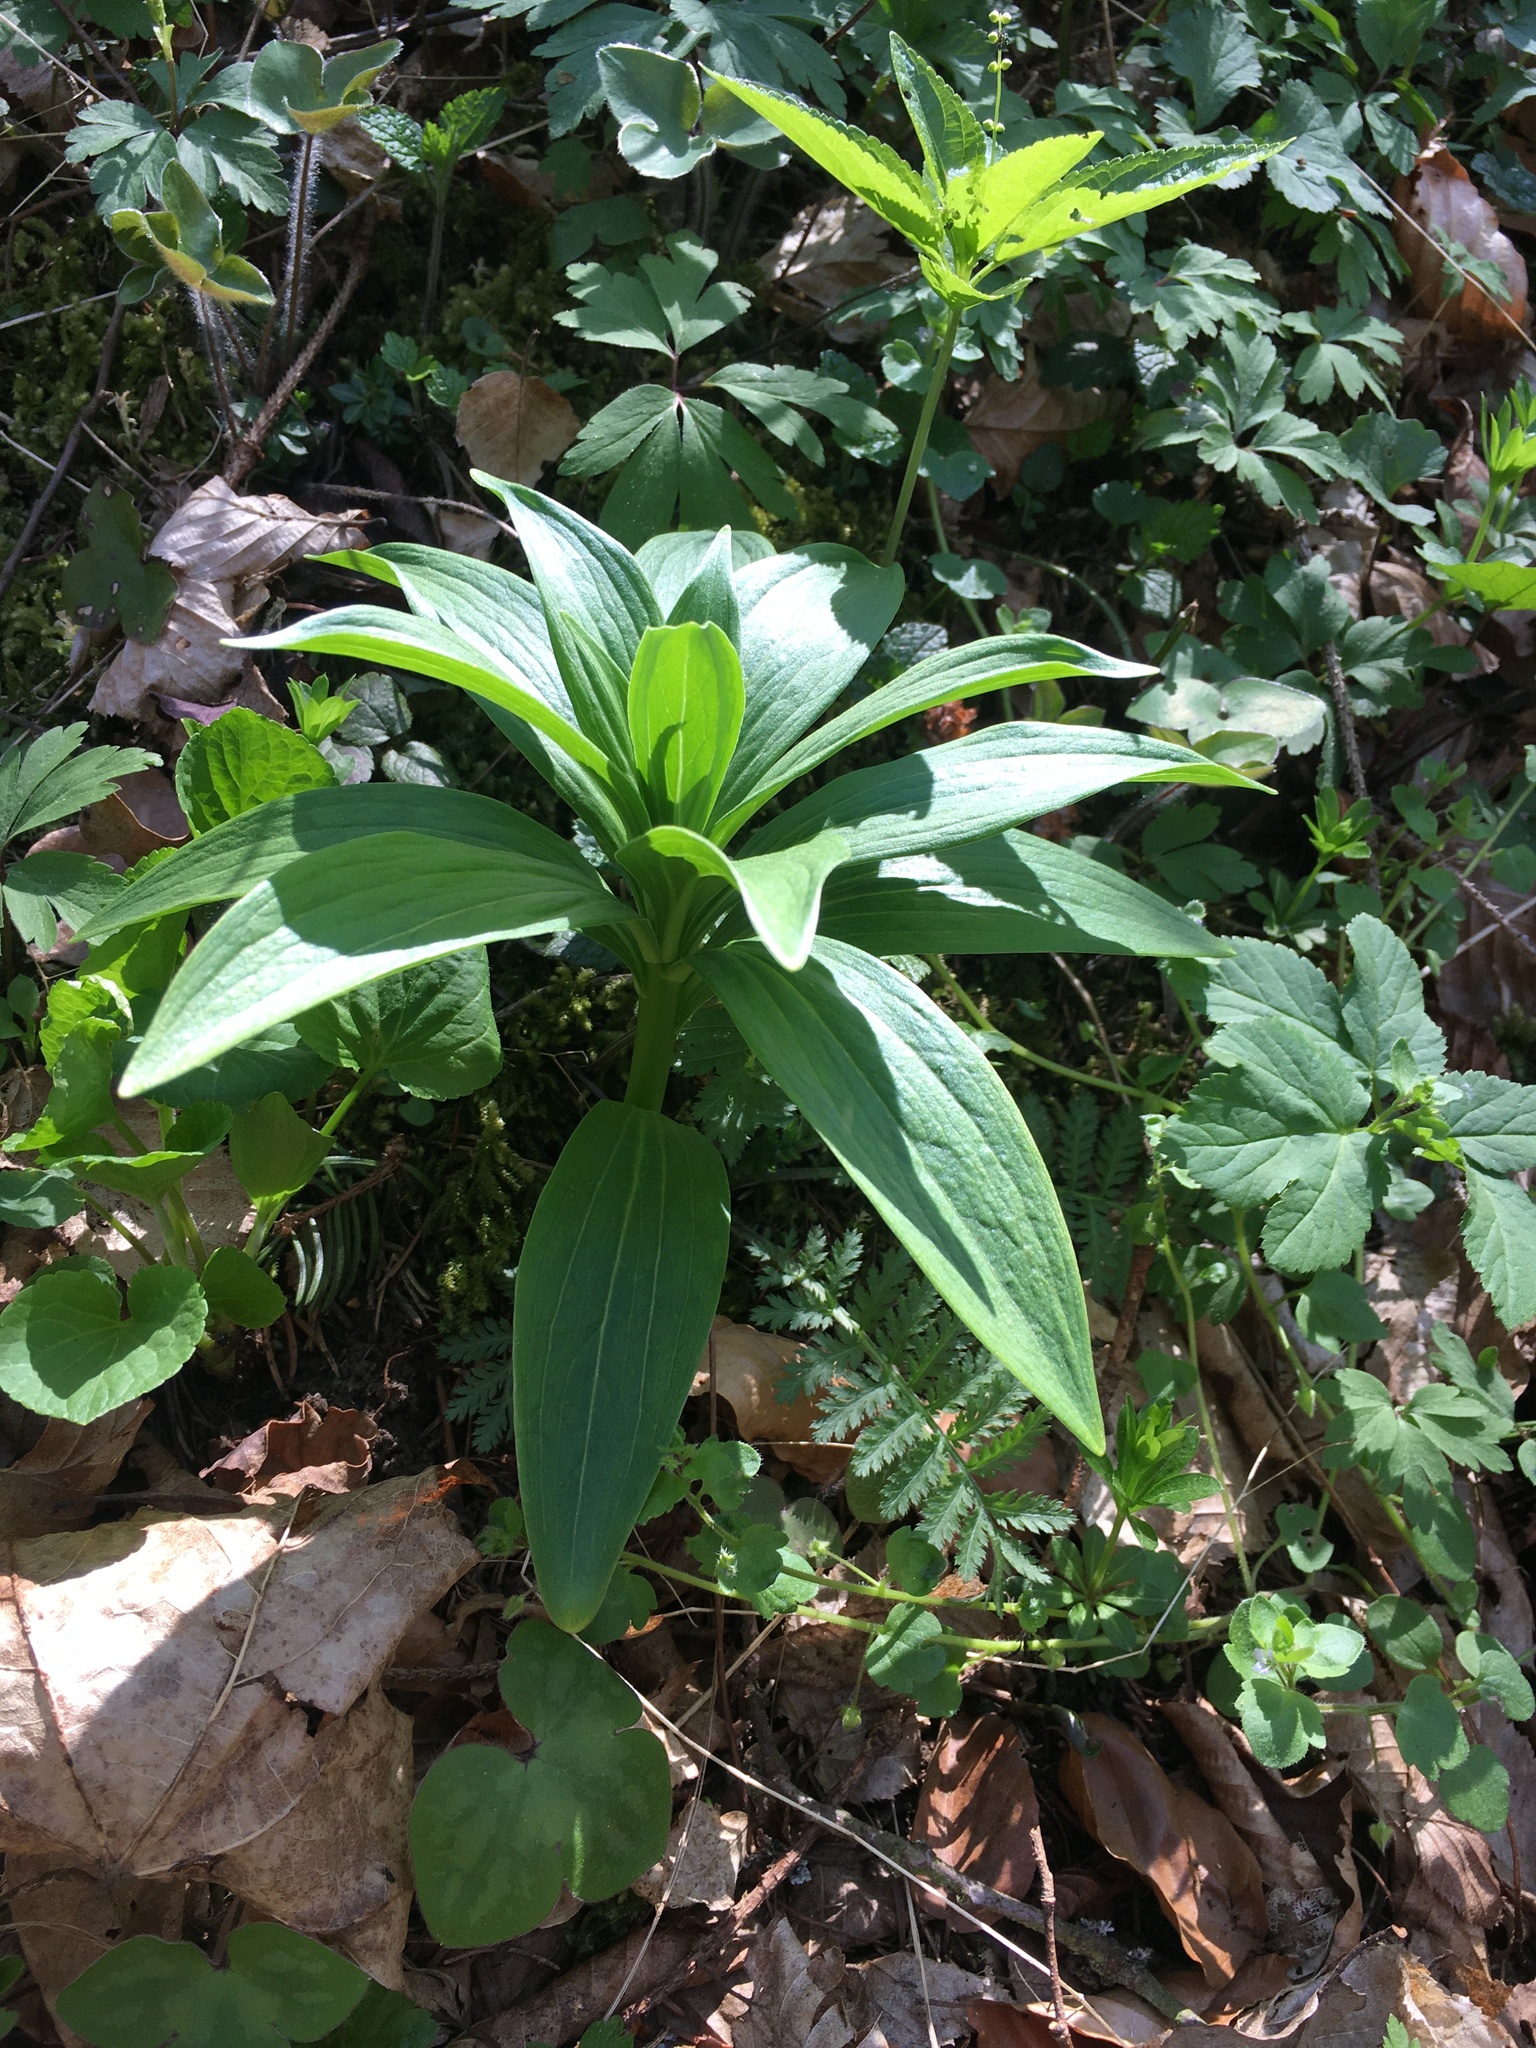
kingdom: Plantae
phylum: Tracheophyta
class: Liliopsida
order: Liliales
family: Liliaceae
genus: Lilium
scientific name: Lilium martagon
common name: Martagon lily
